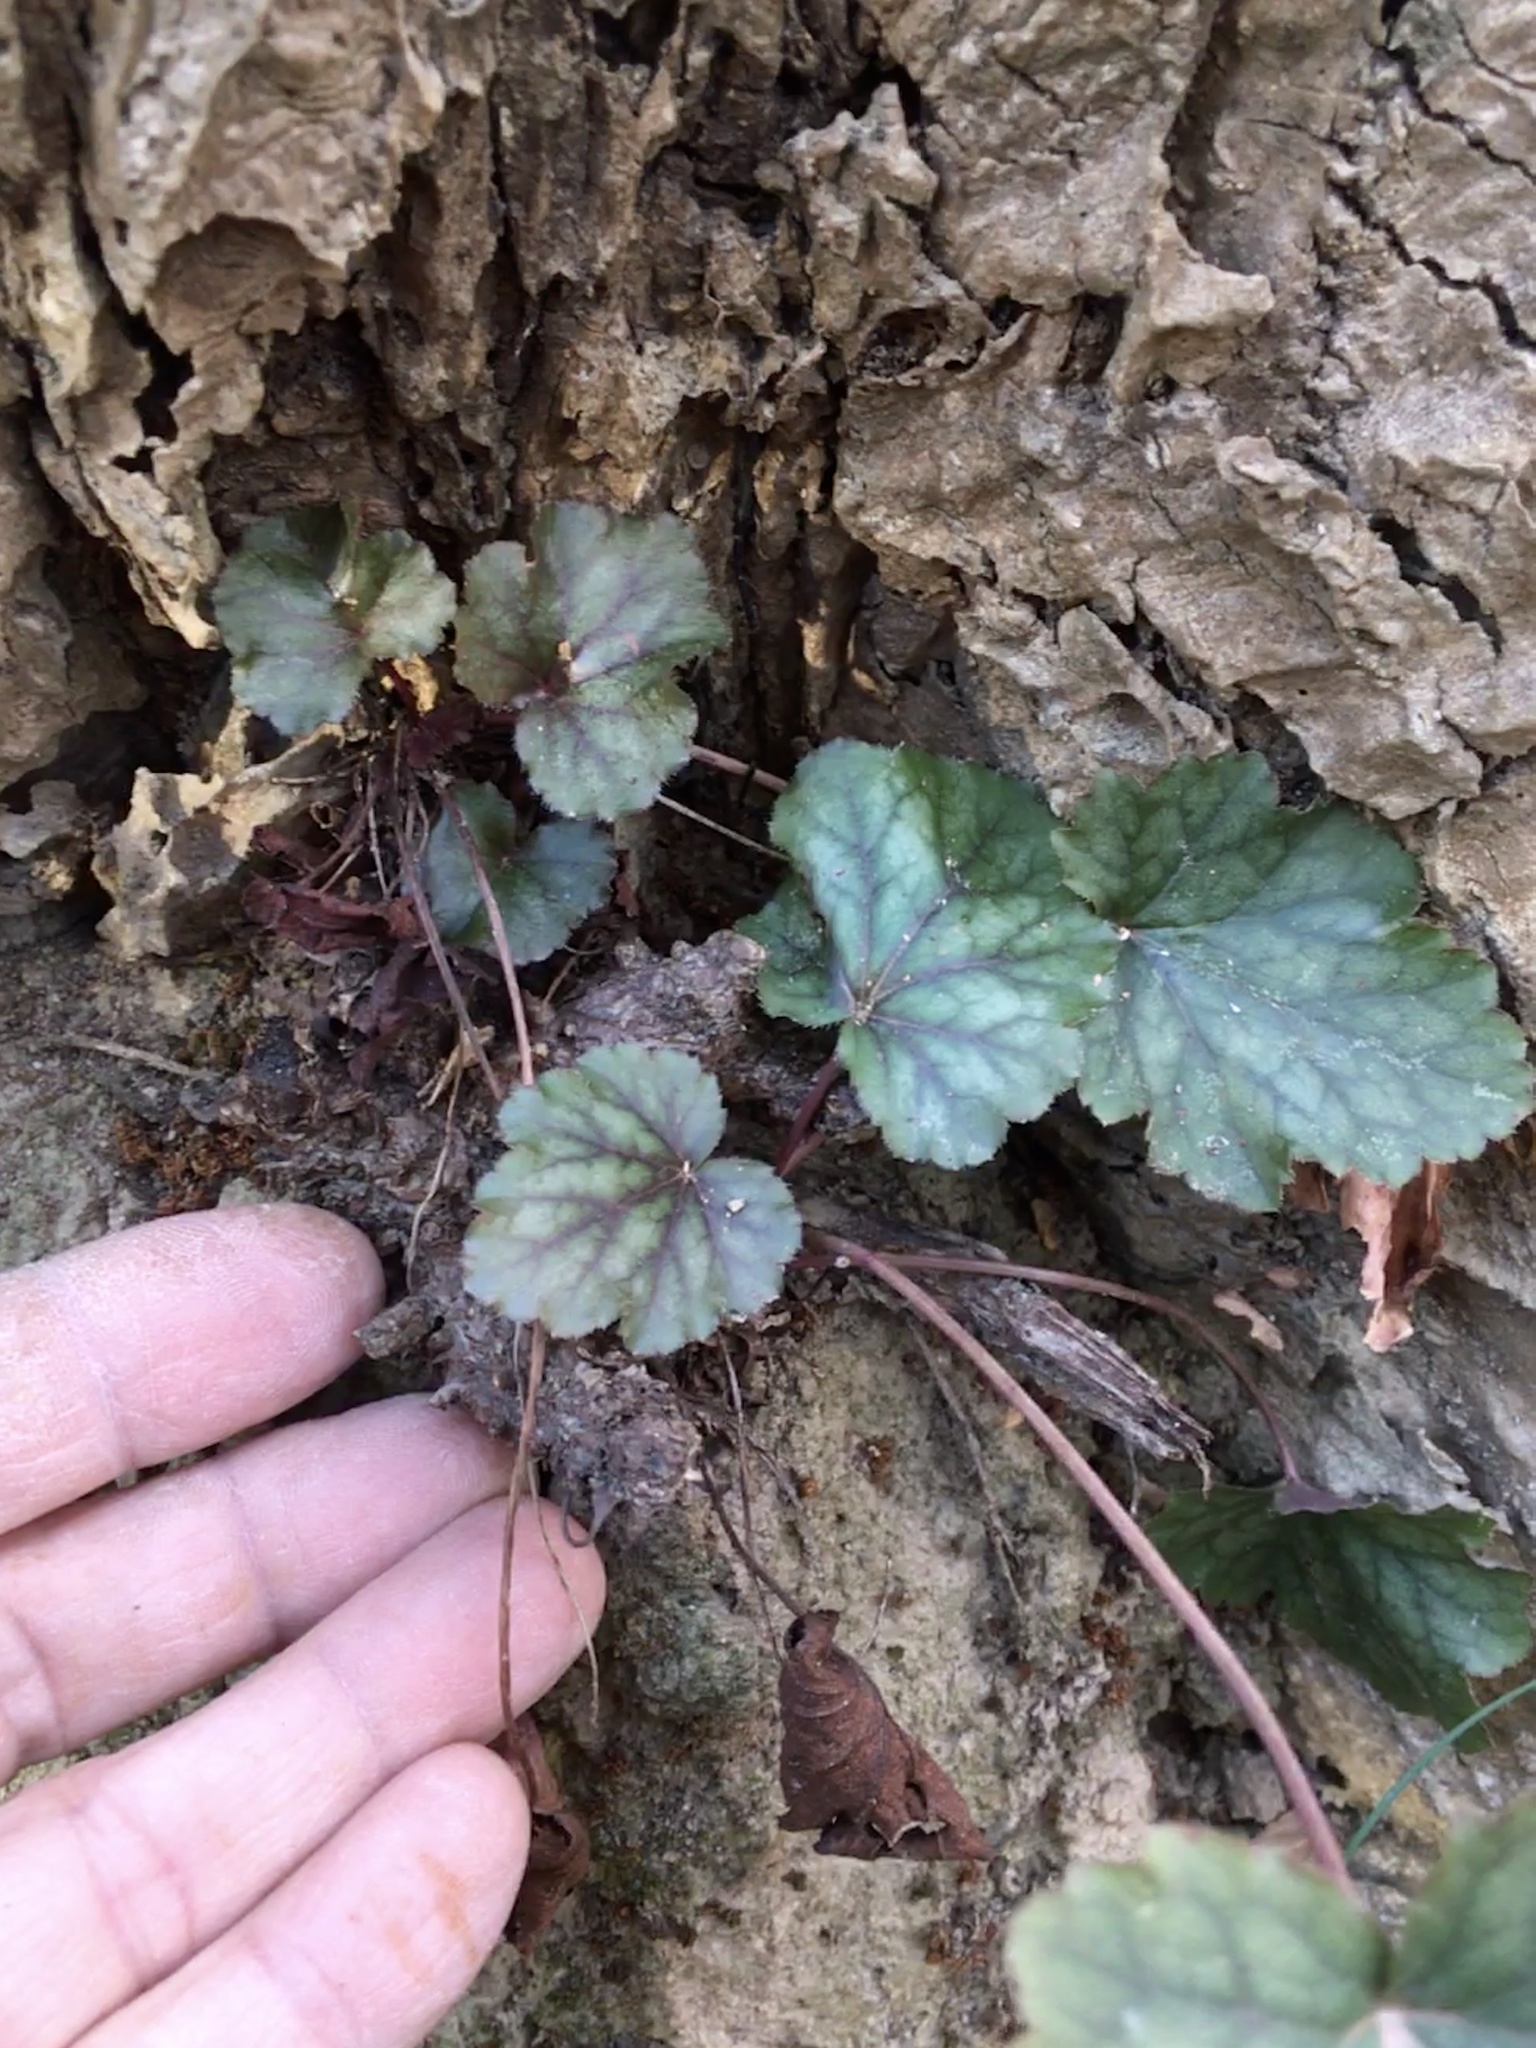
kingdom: Plantae
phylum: Tracheophyta
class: Magnoliopsida
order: Saxifragales
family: Saxifragaceae
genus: Heuchera
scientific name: Heuchera caroliniana
